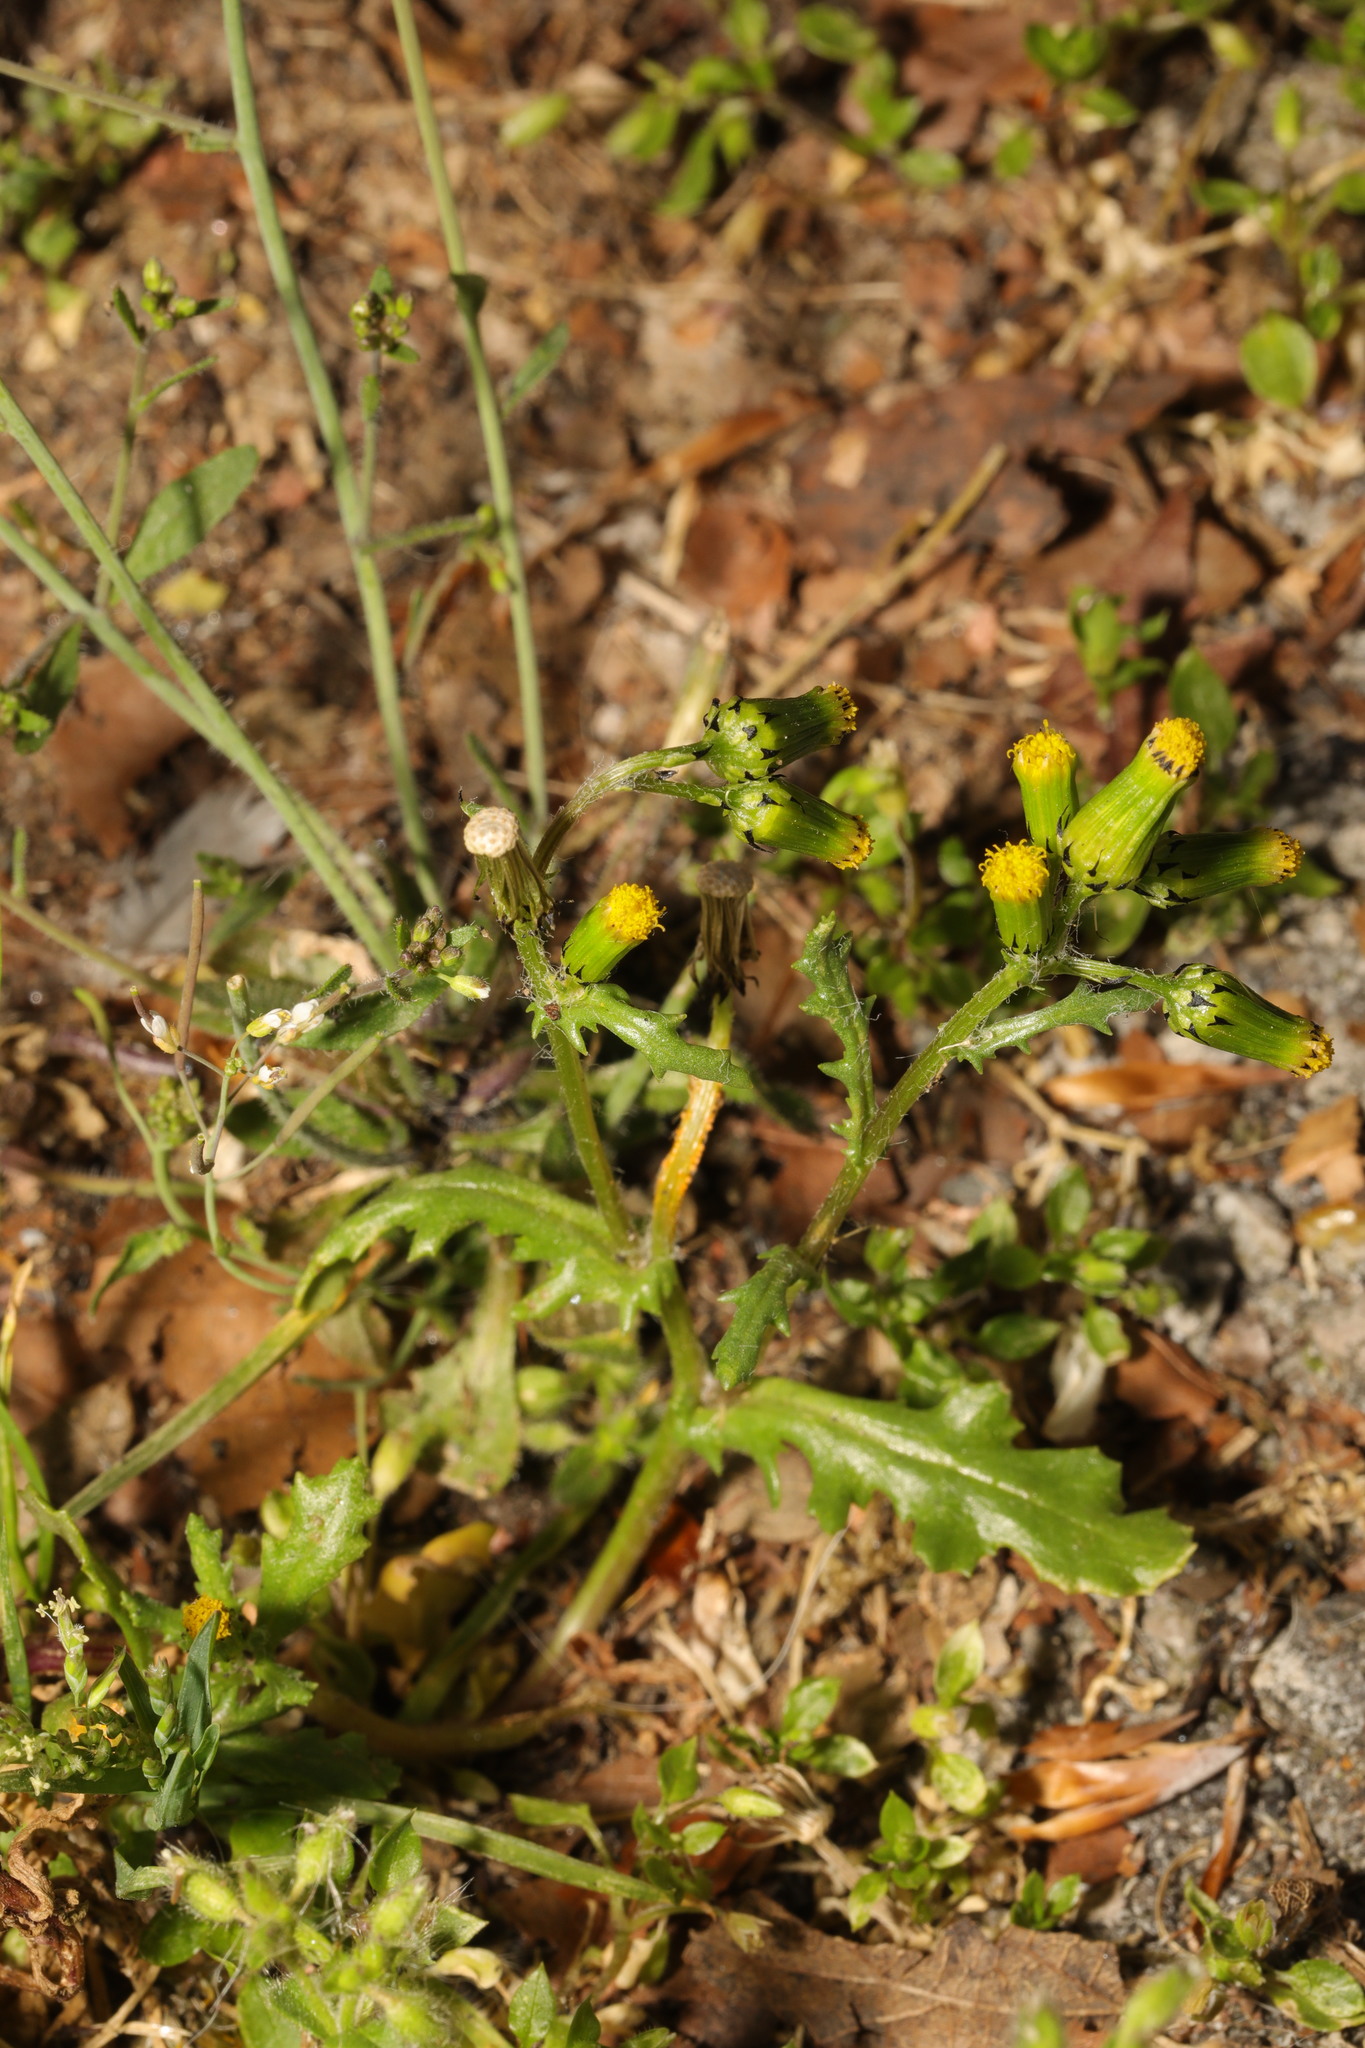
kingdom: Plantae
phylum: Tracheophyta
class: Magnoliopsida
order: Asterales
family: Asteraceae
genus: Senecio
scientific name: Senecio vulgaris
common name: Old-man-in-the-spring
